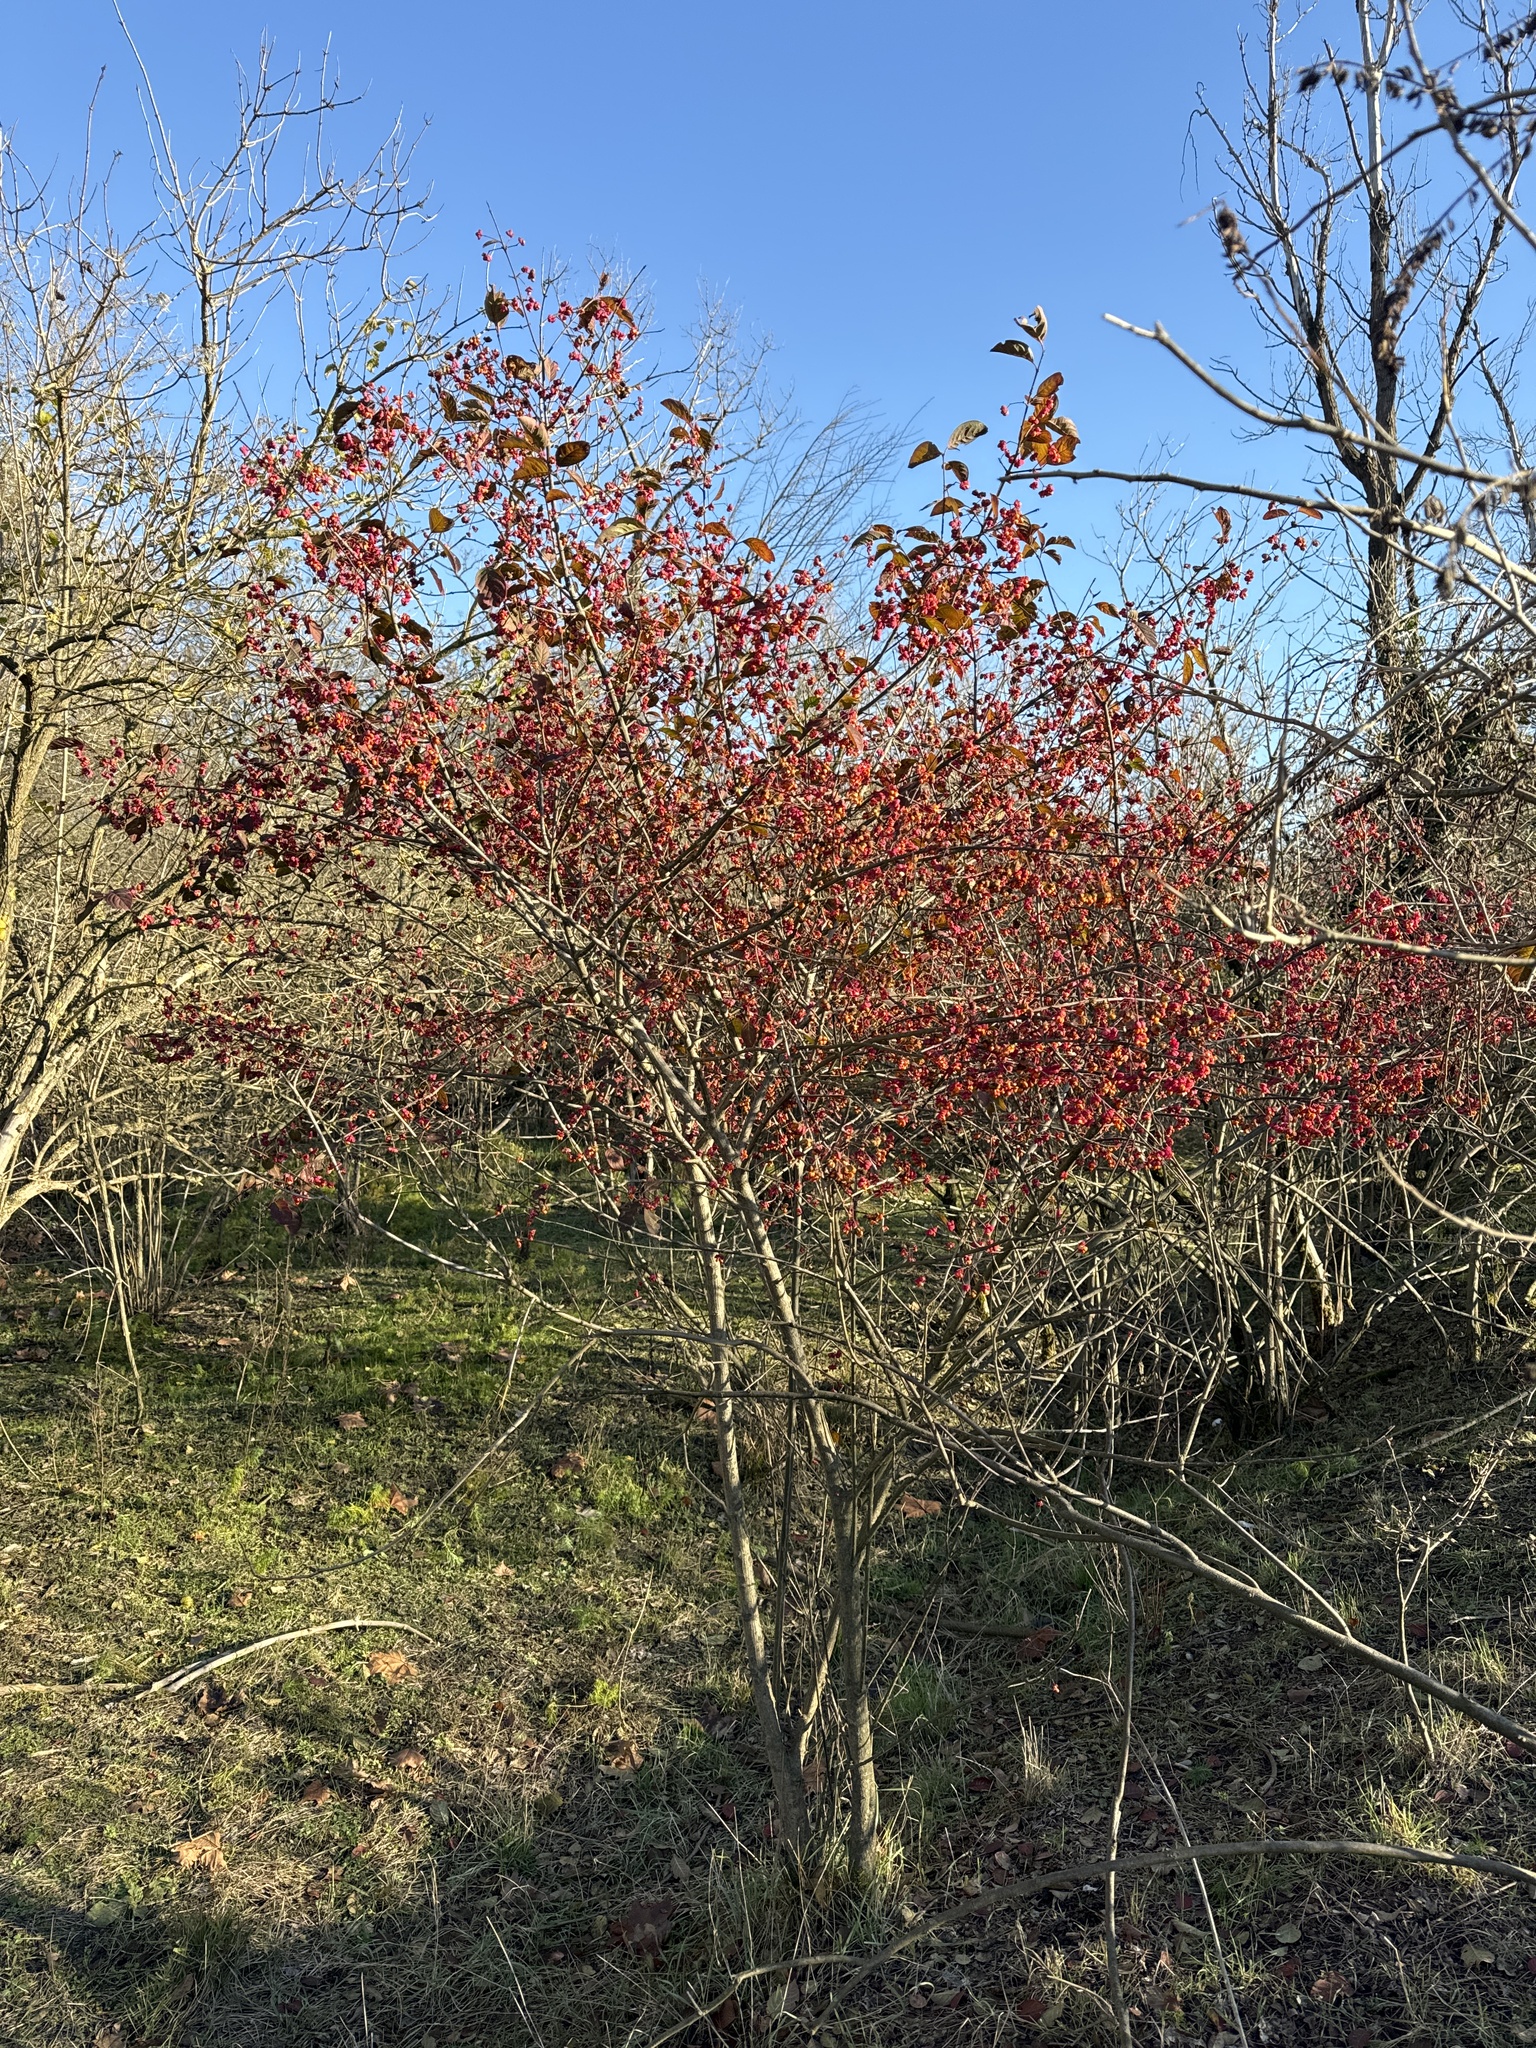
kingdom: Plantae
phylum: Tracheophyta
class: Magnoliopsida
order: Celastrales
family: Celastraceae
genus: Euonymus
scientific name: Euonymus europaeus
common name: Spindle
